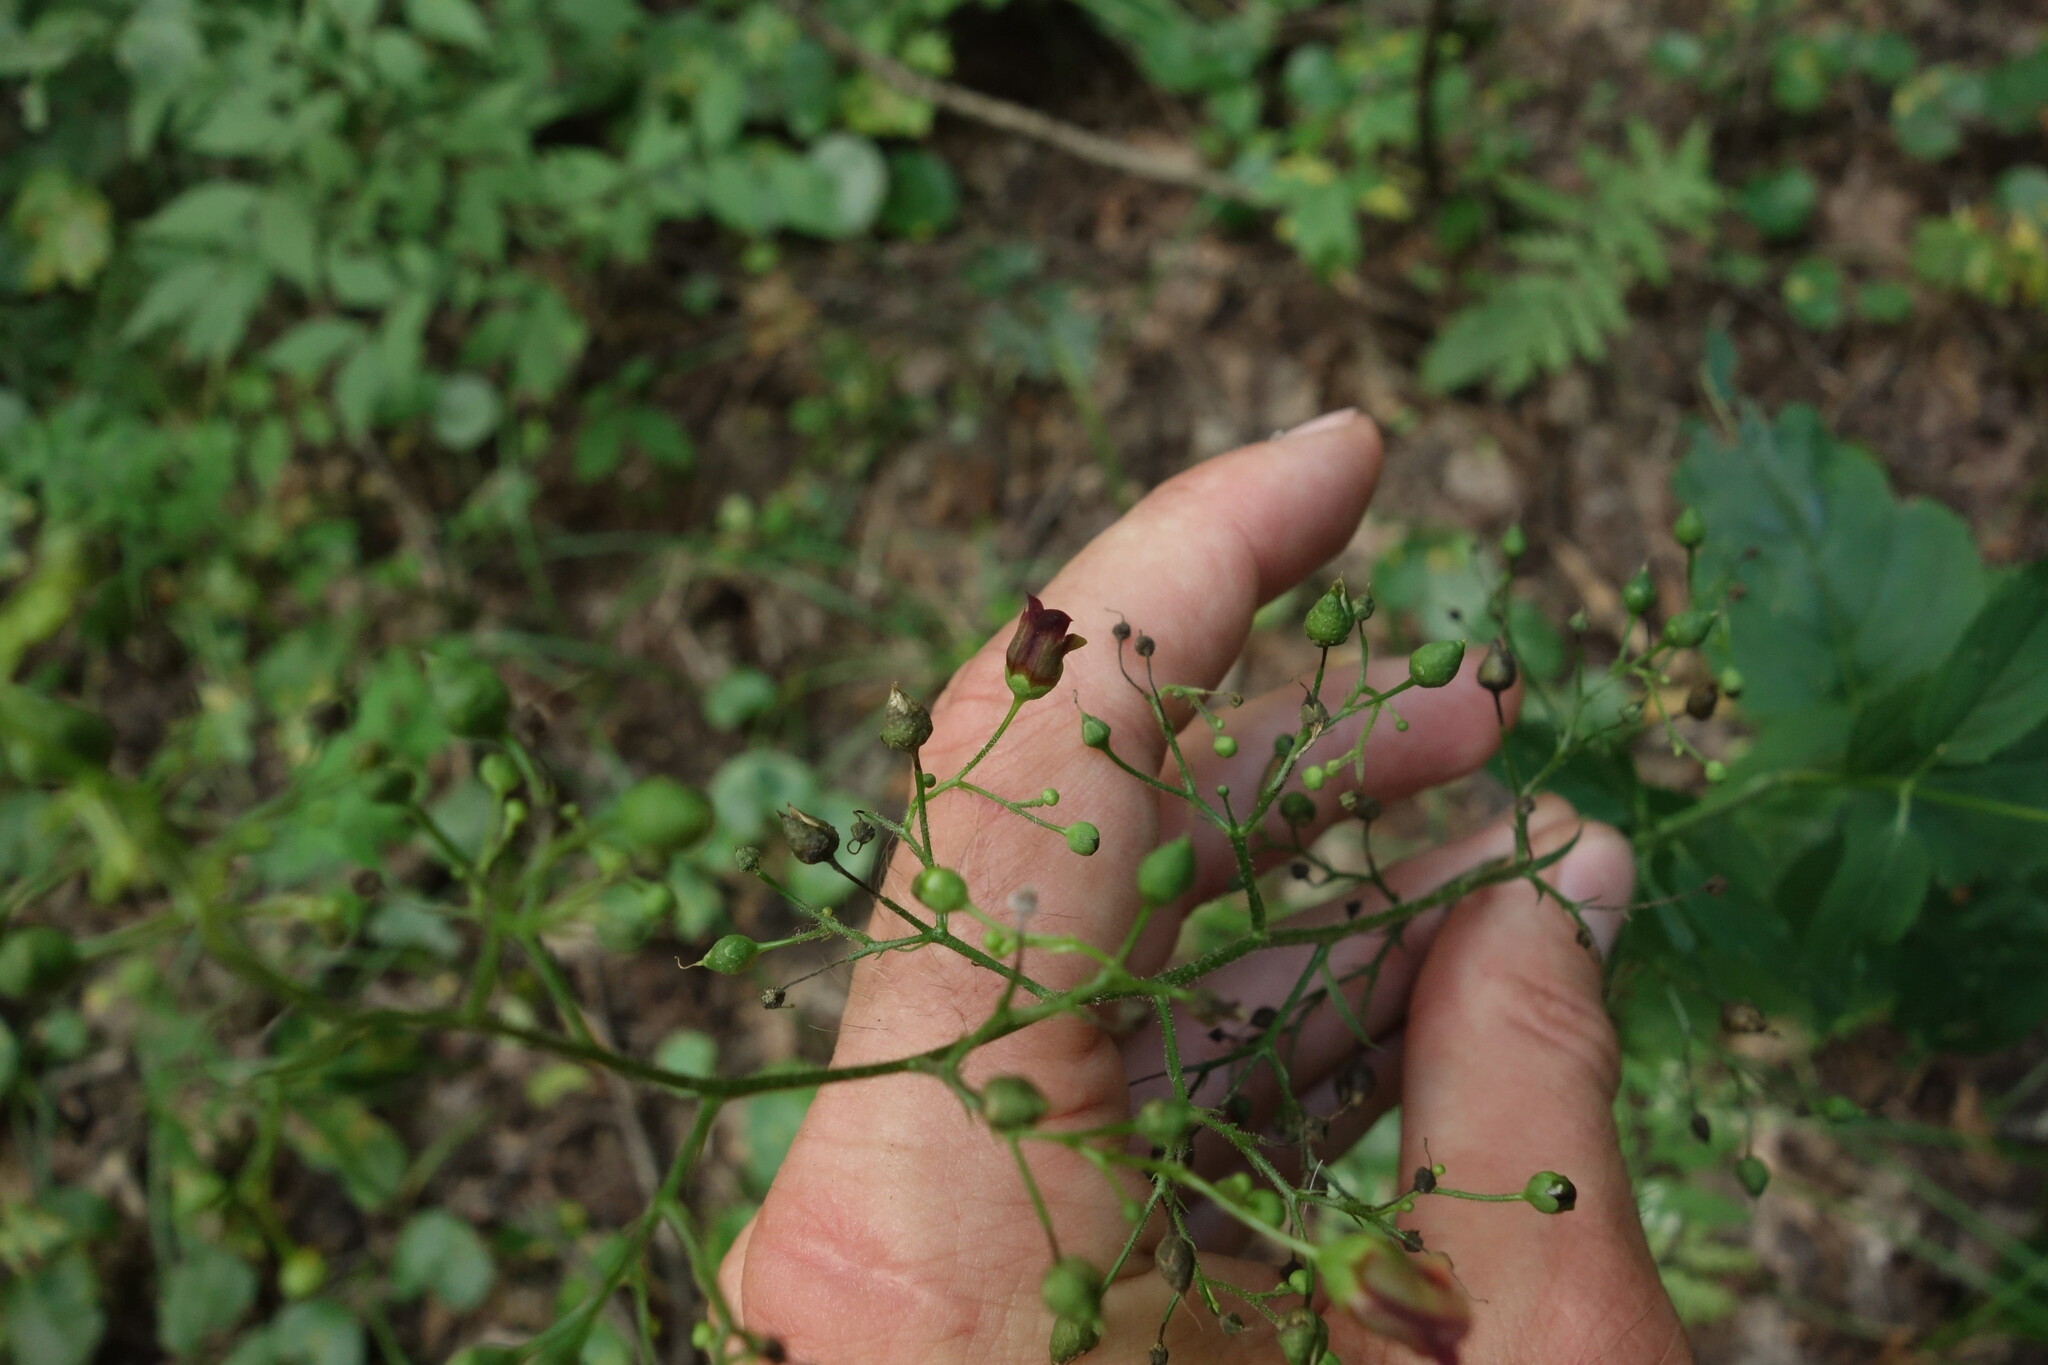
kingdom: Plantae
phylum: Tracheophyta
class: Magnoliopsida
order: Lamiales
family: Scrophulariaceae
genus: Scrophularia
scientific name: Scrophularia nodosa
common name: Common figwort
